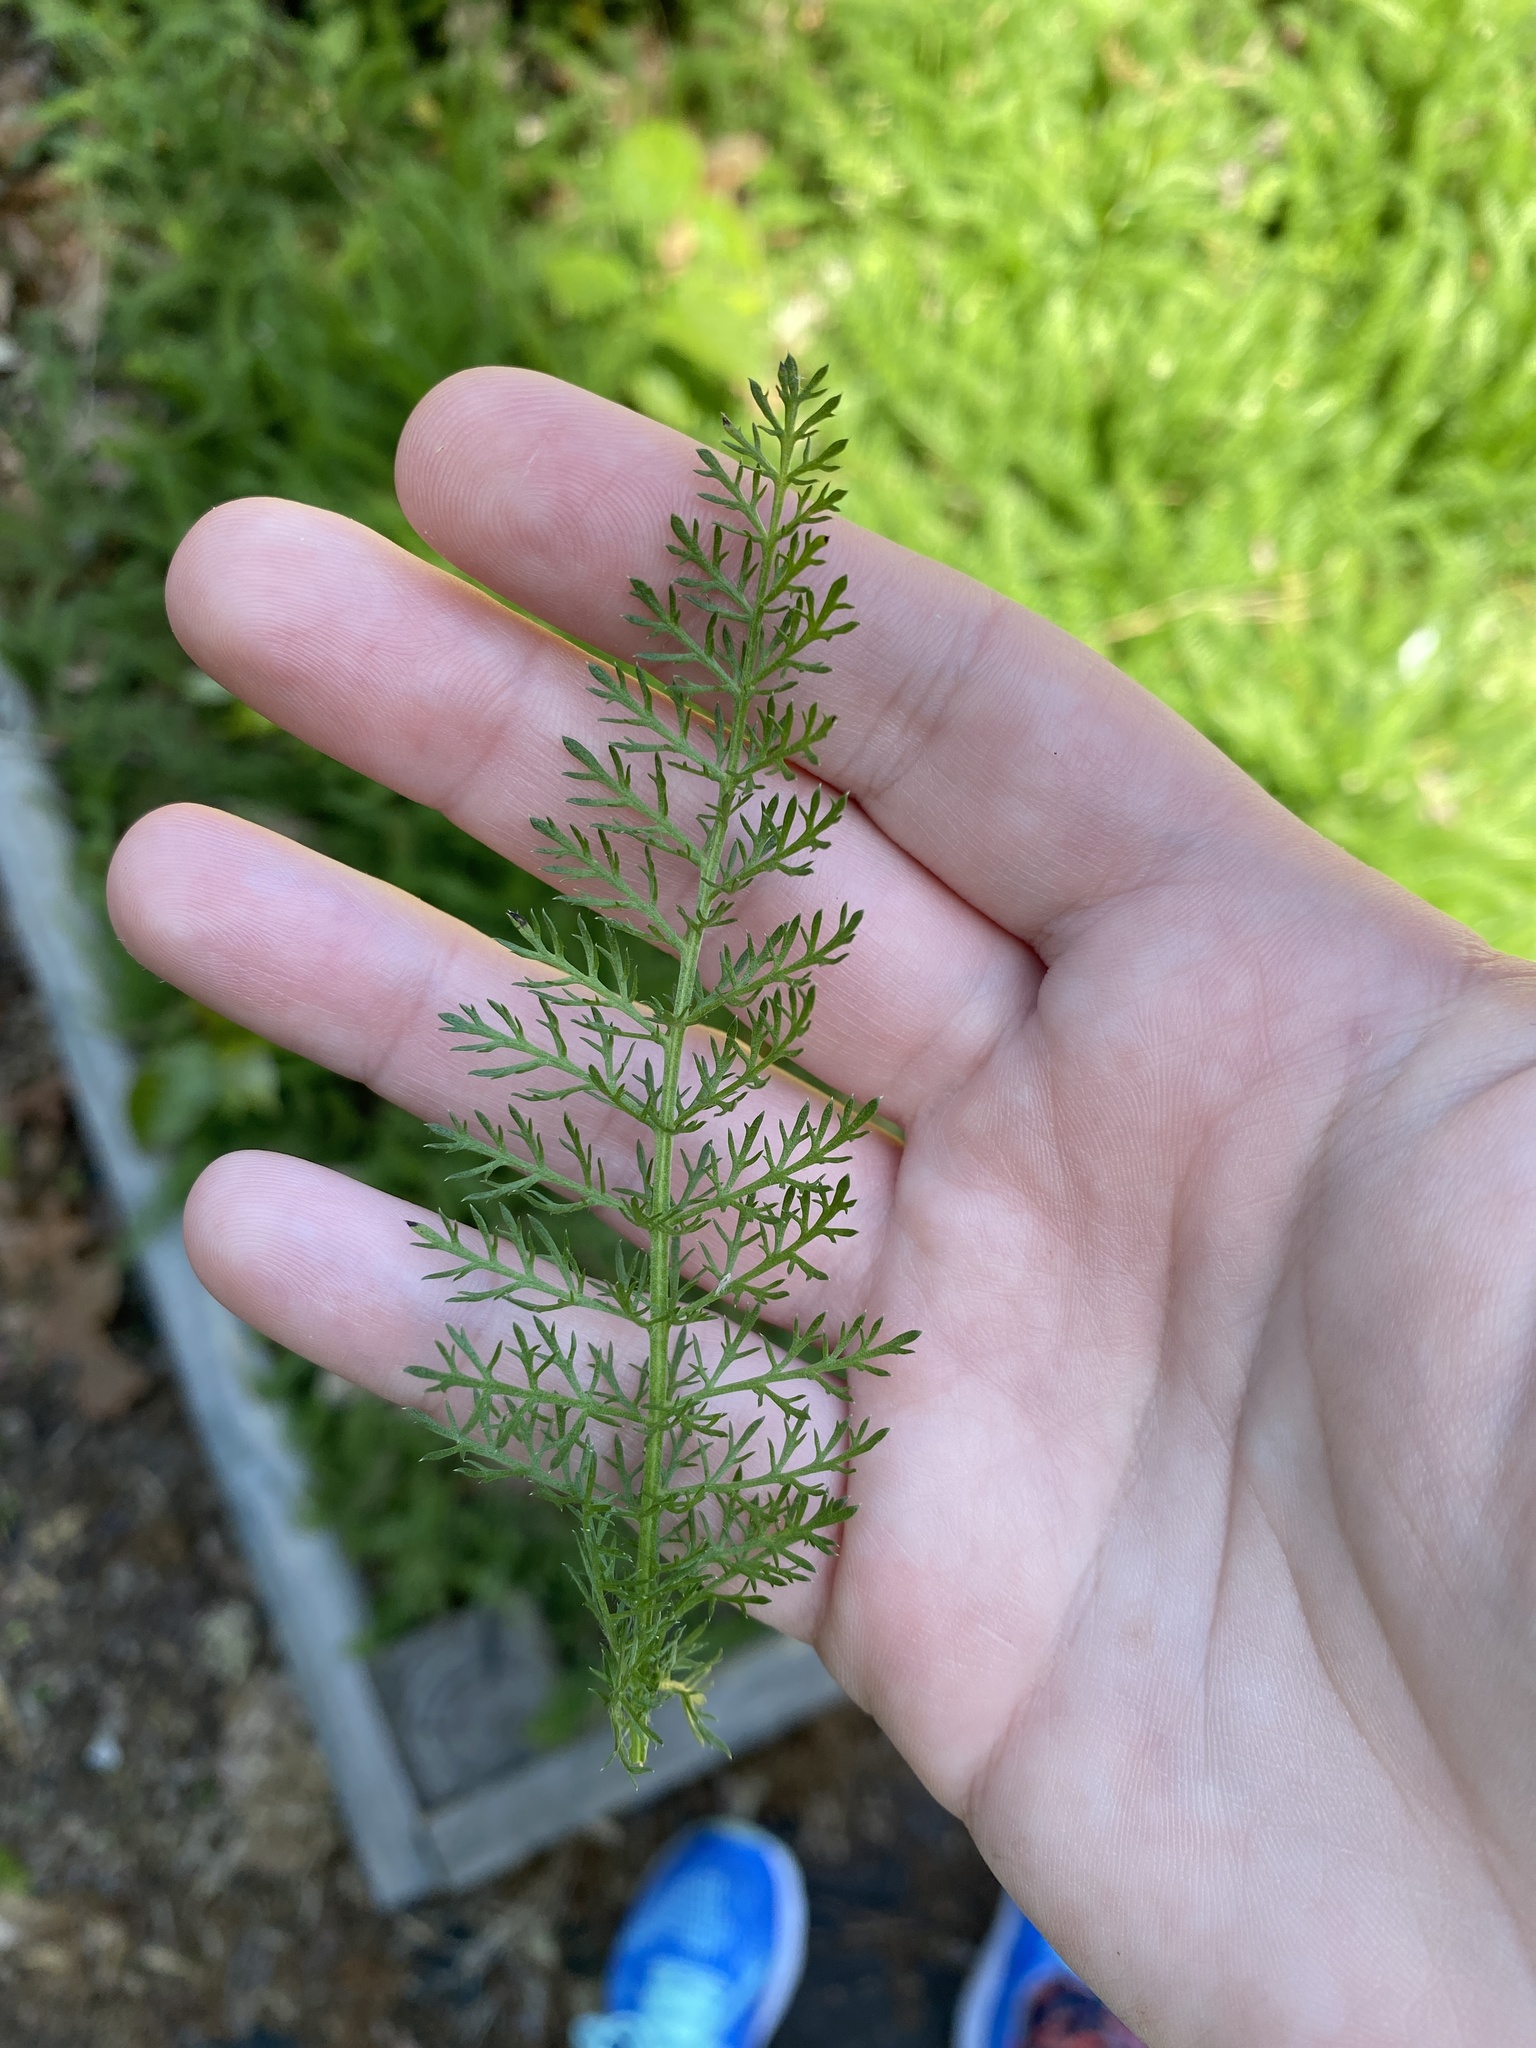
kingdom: Plantae
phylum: Tracheophyta
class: Magnoliopsida
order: Asterales
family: Asteraceae
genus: Achillea
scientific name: Achillea millefolium
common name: Yarrow
